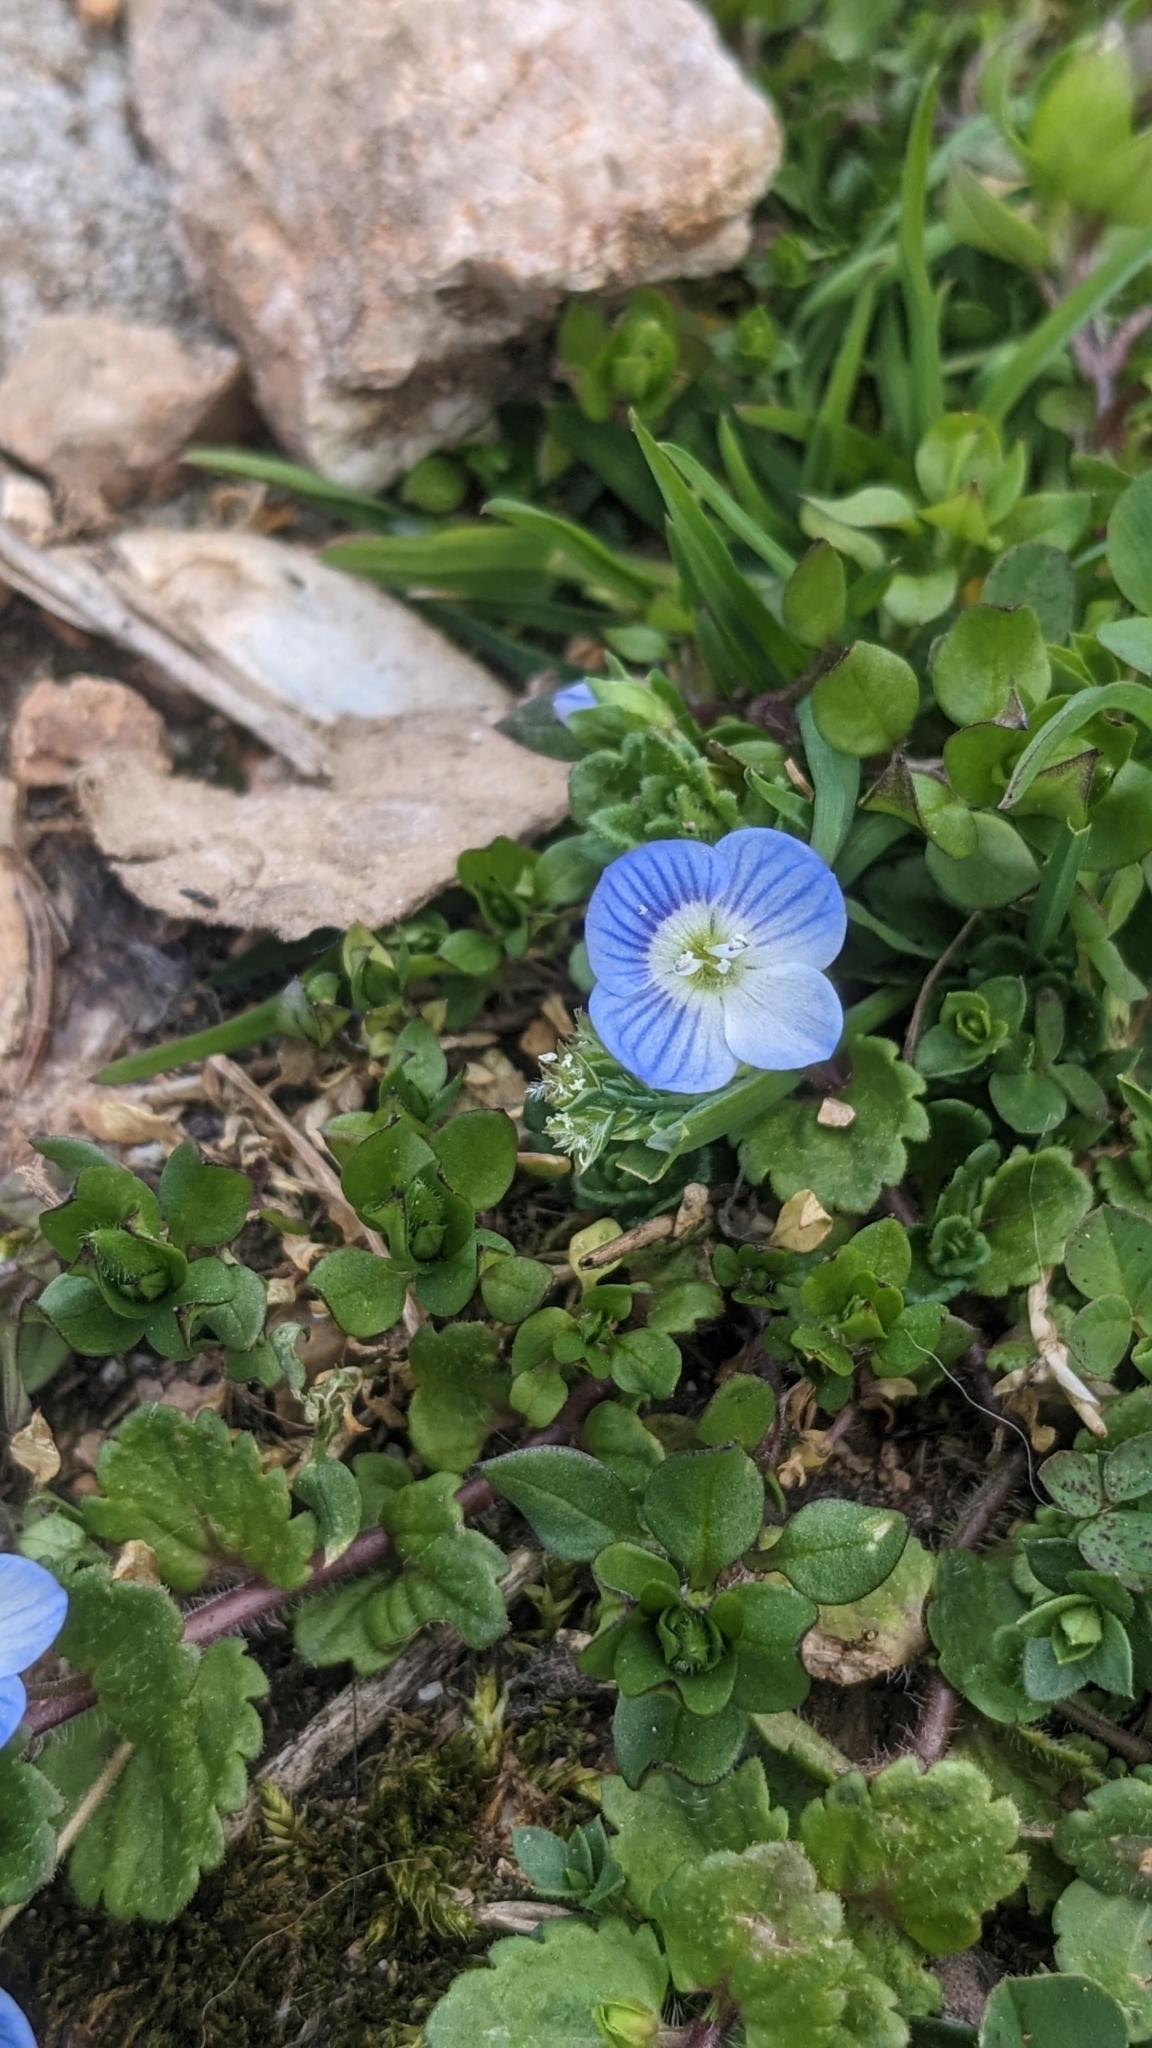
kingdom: Plantae
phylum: Tracheophyta
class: Magnoliopsida
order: Lamiales
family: Plantaginaceae
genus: Veronica
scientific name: Veronica persica
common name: Common field-speedwell
